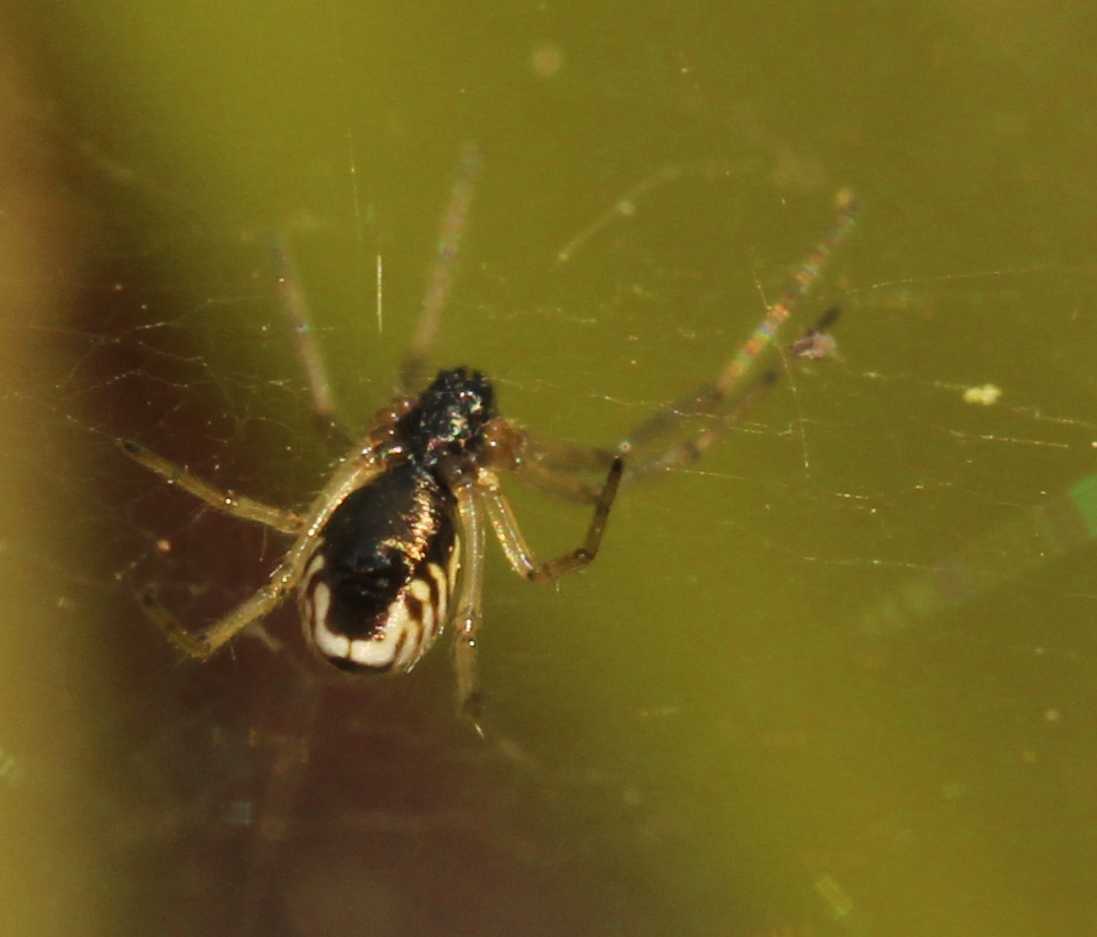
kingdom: Animalia
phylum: Arthropoda
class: Arachnida
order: Araneae
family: Linyphiidae
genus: Frontinella
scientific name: Frontinella
